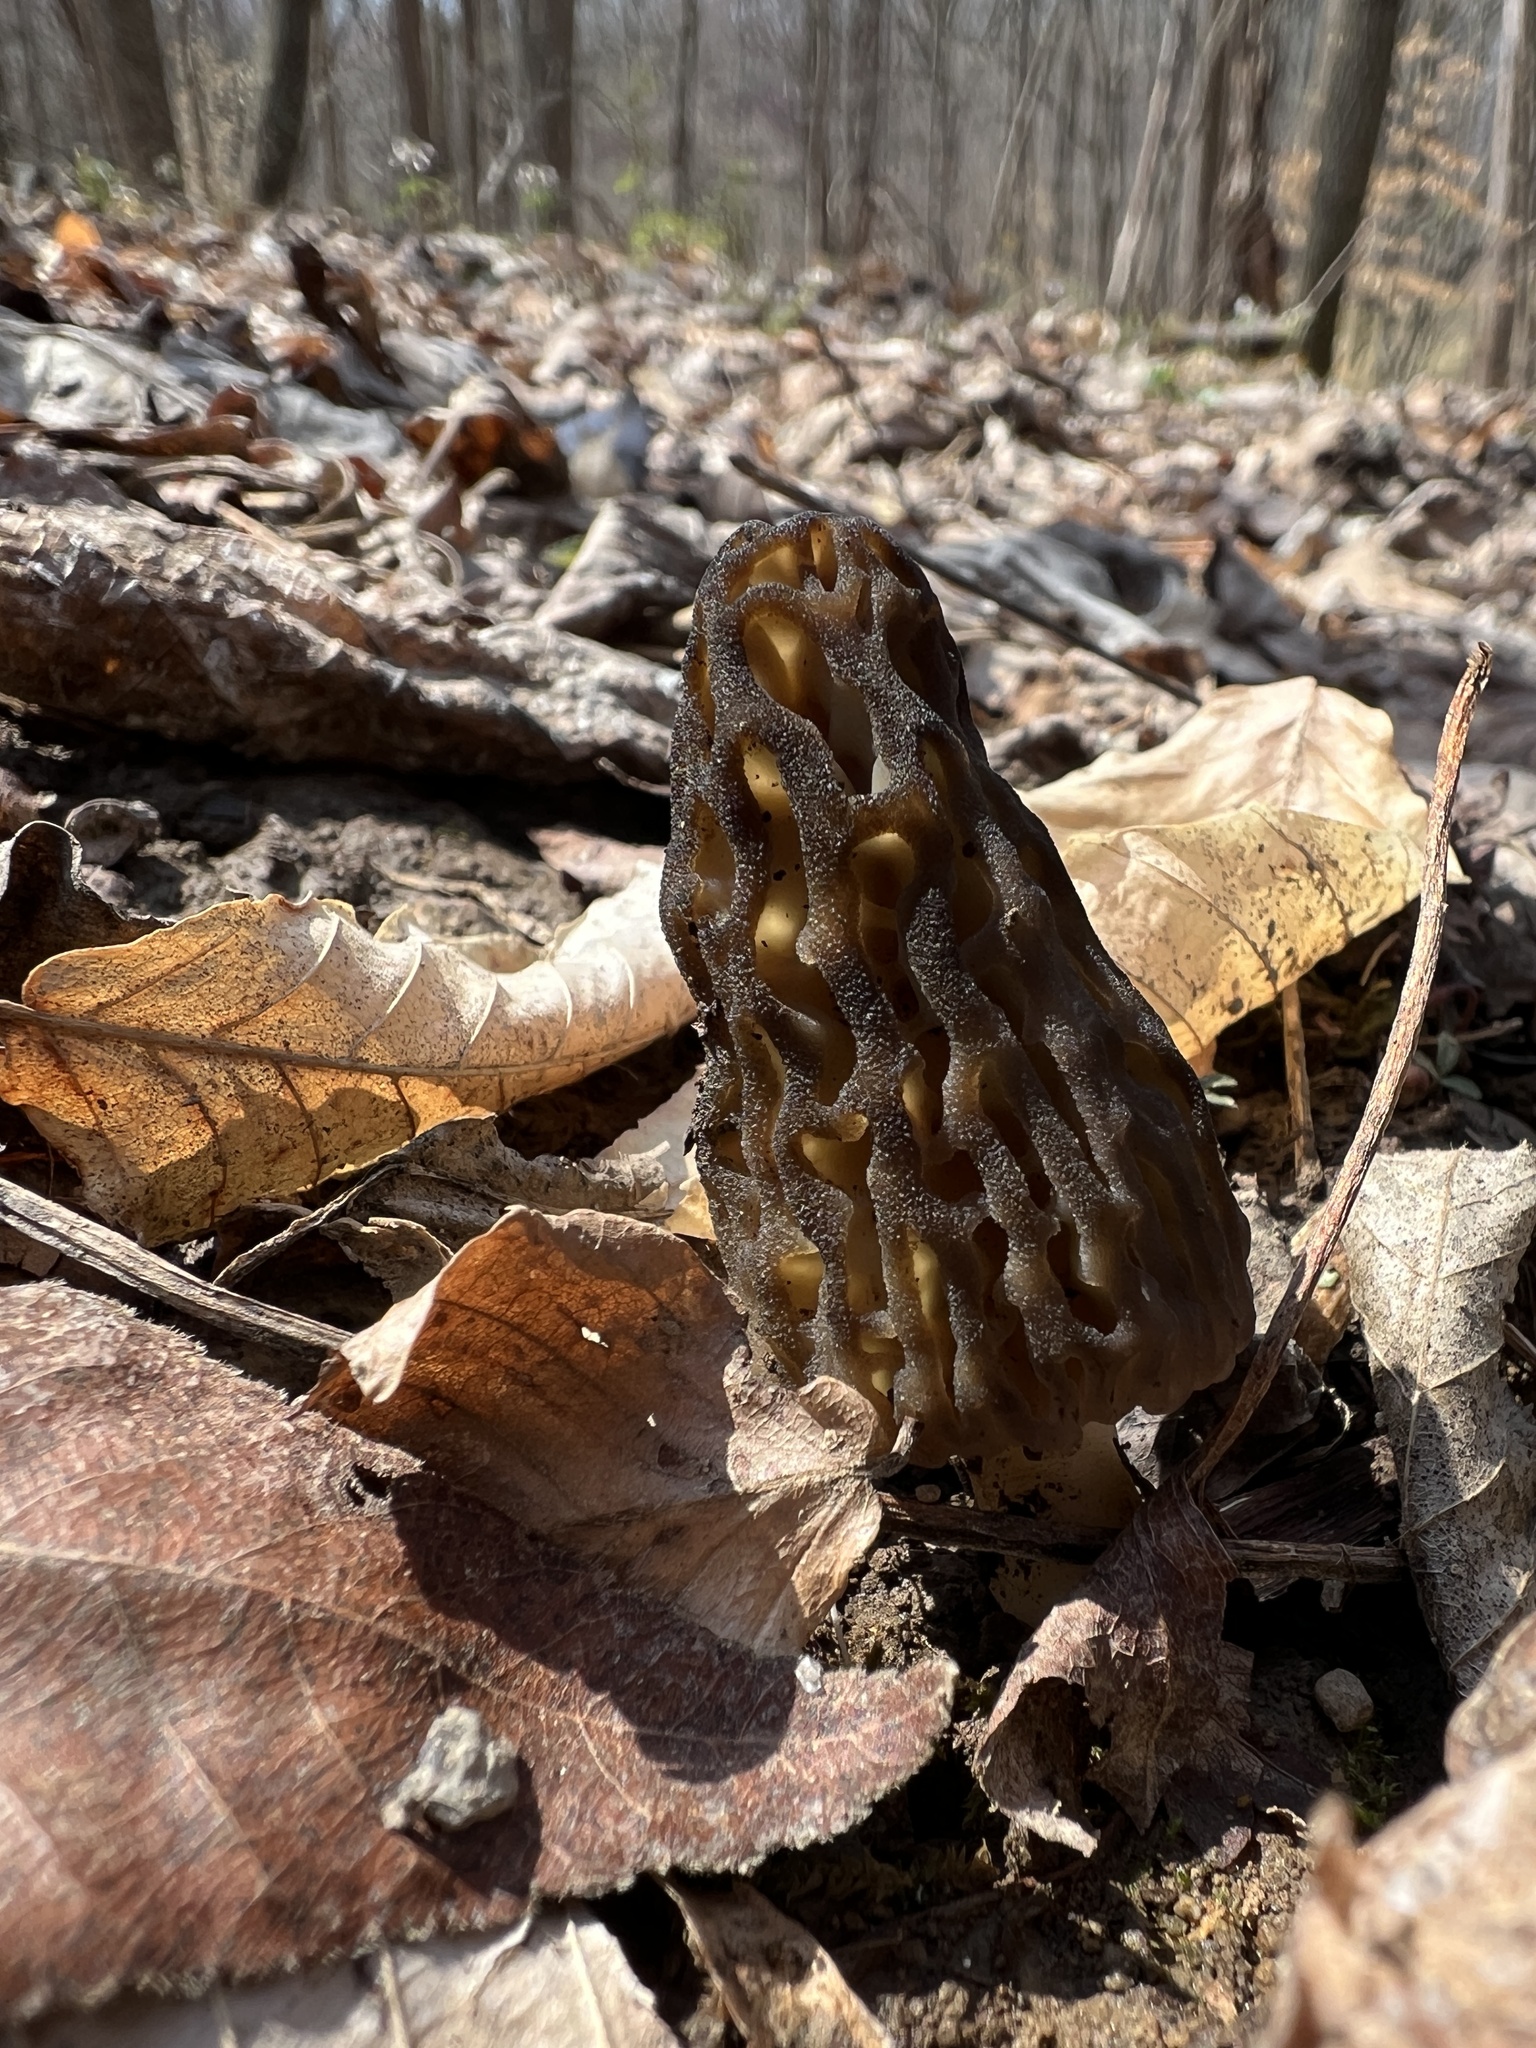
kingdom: Fungi
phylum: Ascomycota
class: Pezizomycetes
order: Pezizales
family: Morchellaceae
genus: Morchella
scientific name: Morchella angusticeps
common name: Black morel
